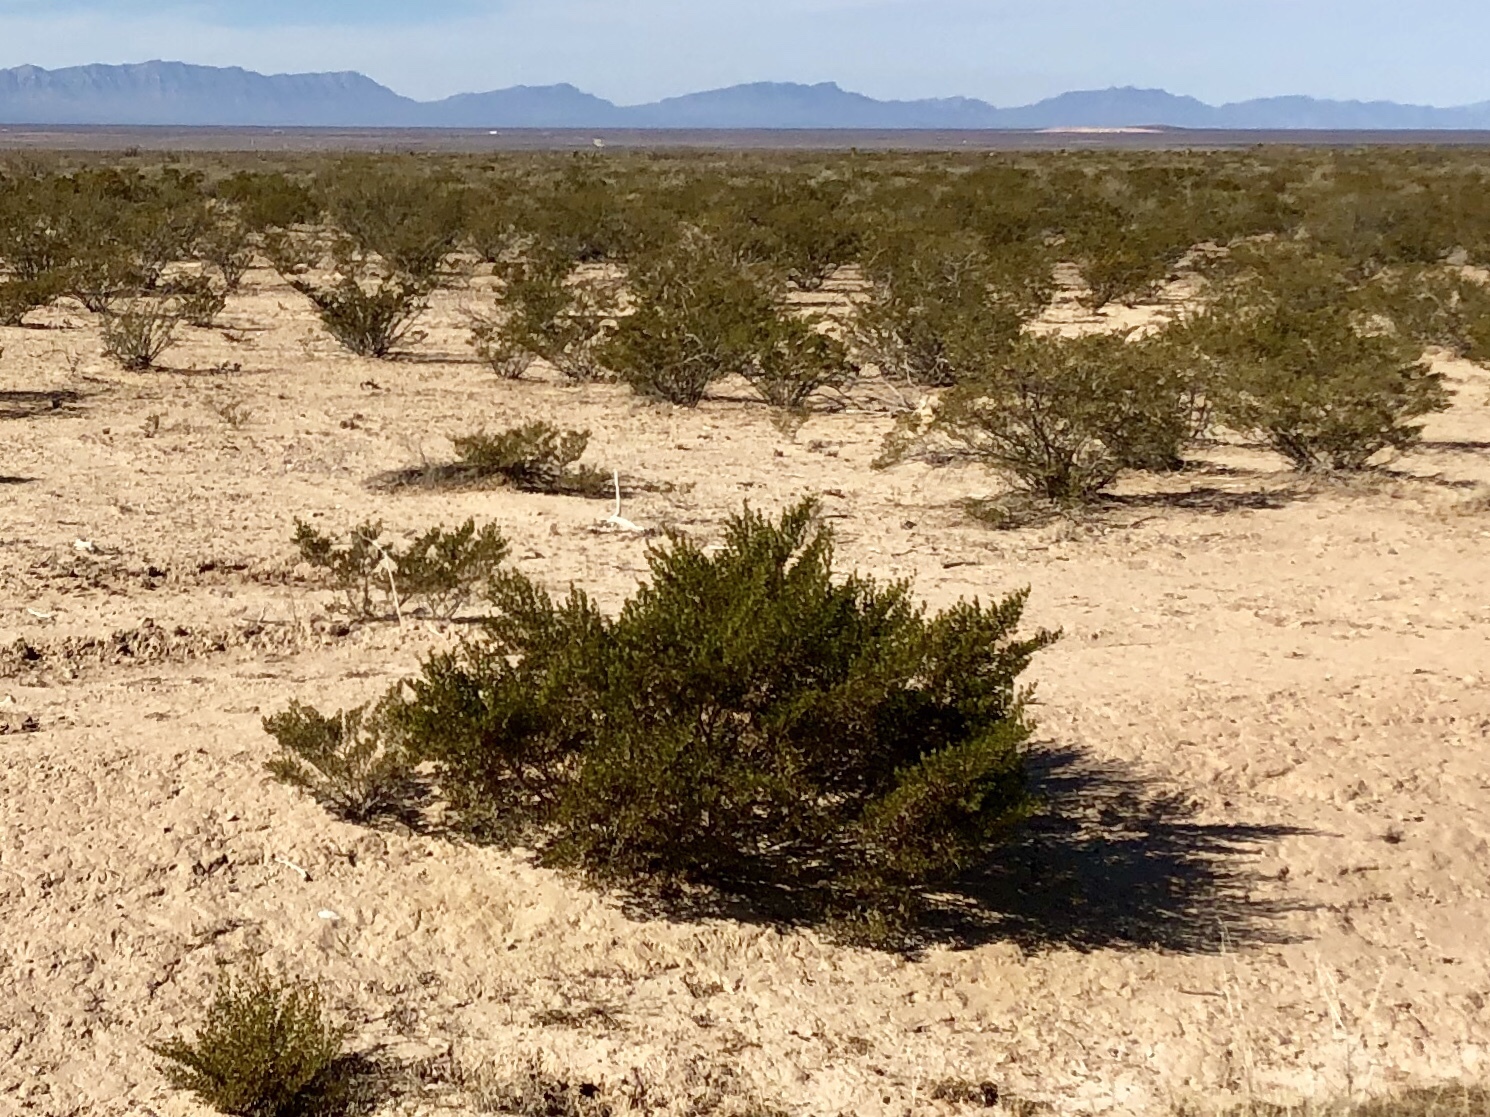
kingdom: Plantae
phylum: Tracheophyta
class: Magnoliopsida
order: Zygophyllales
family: Zygophyllaceae
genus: Larrea
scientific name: Larrea tridentata
